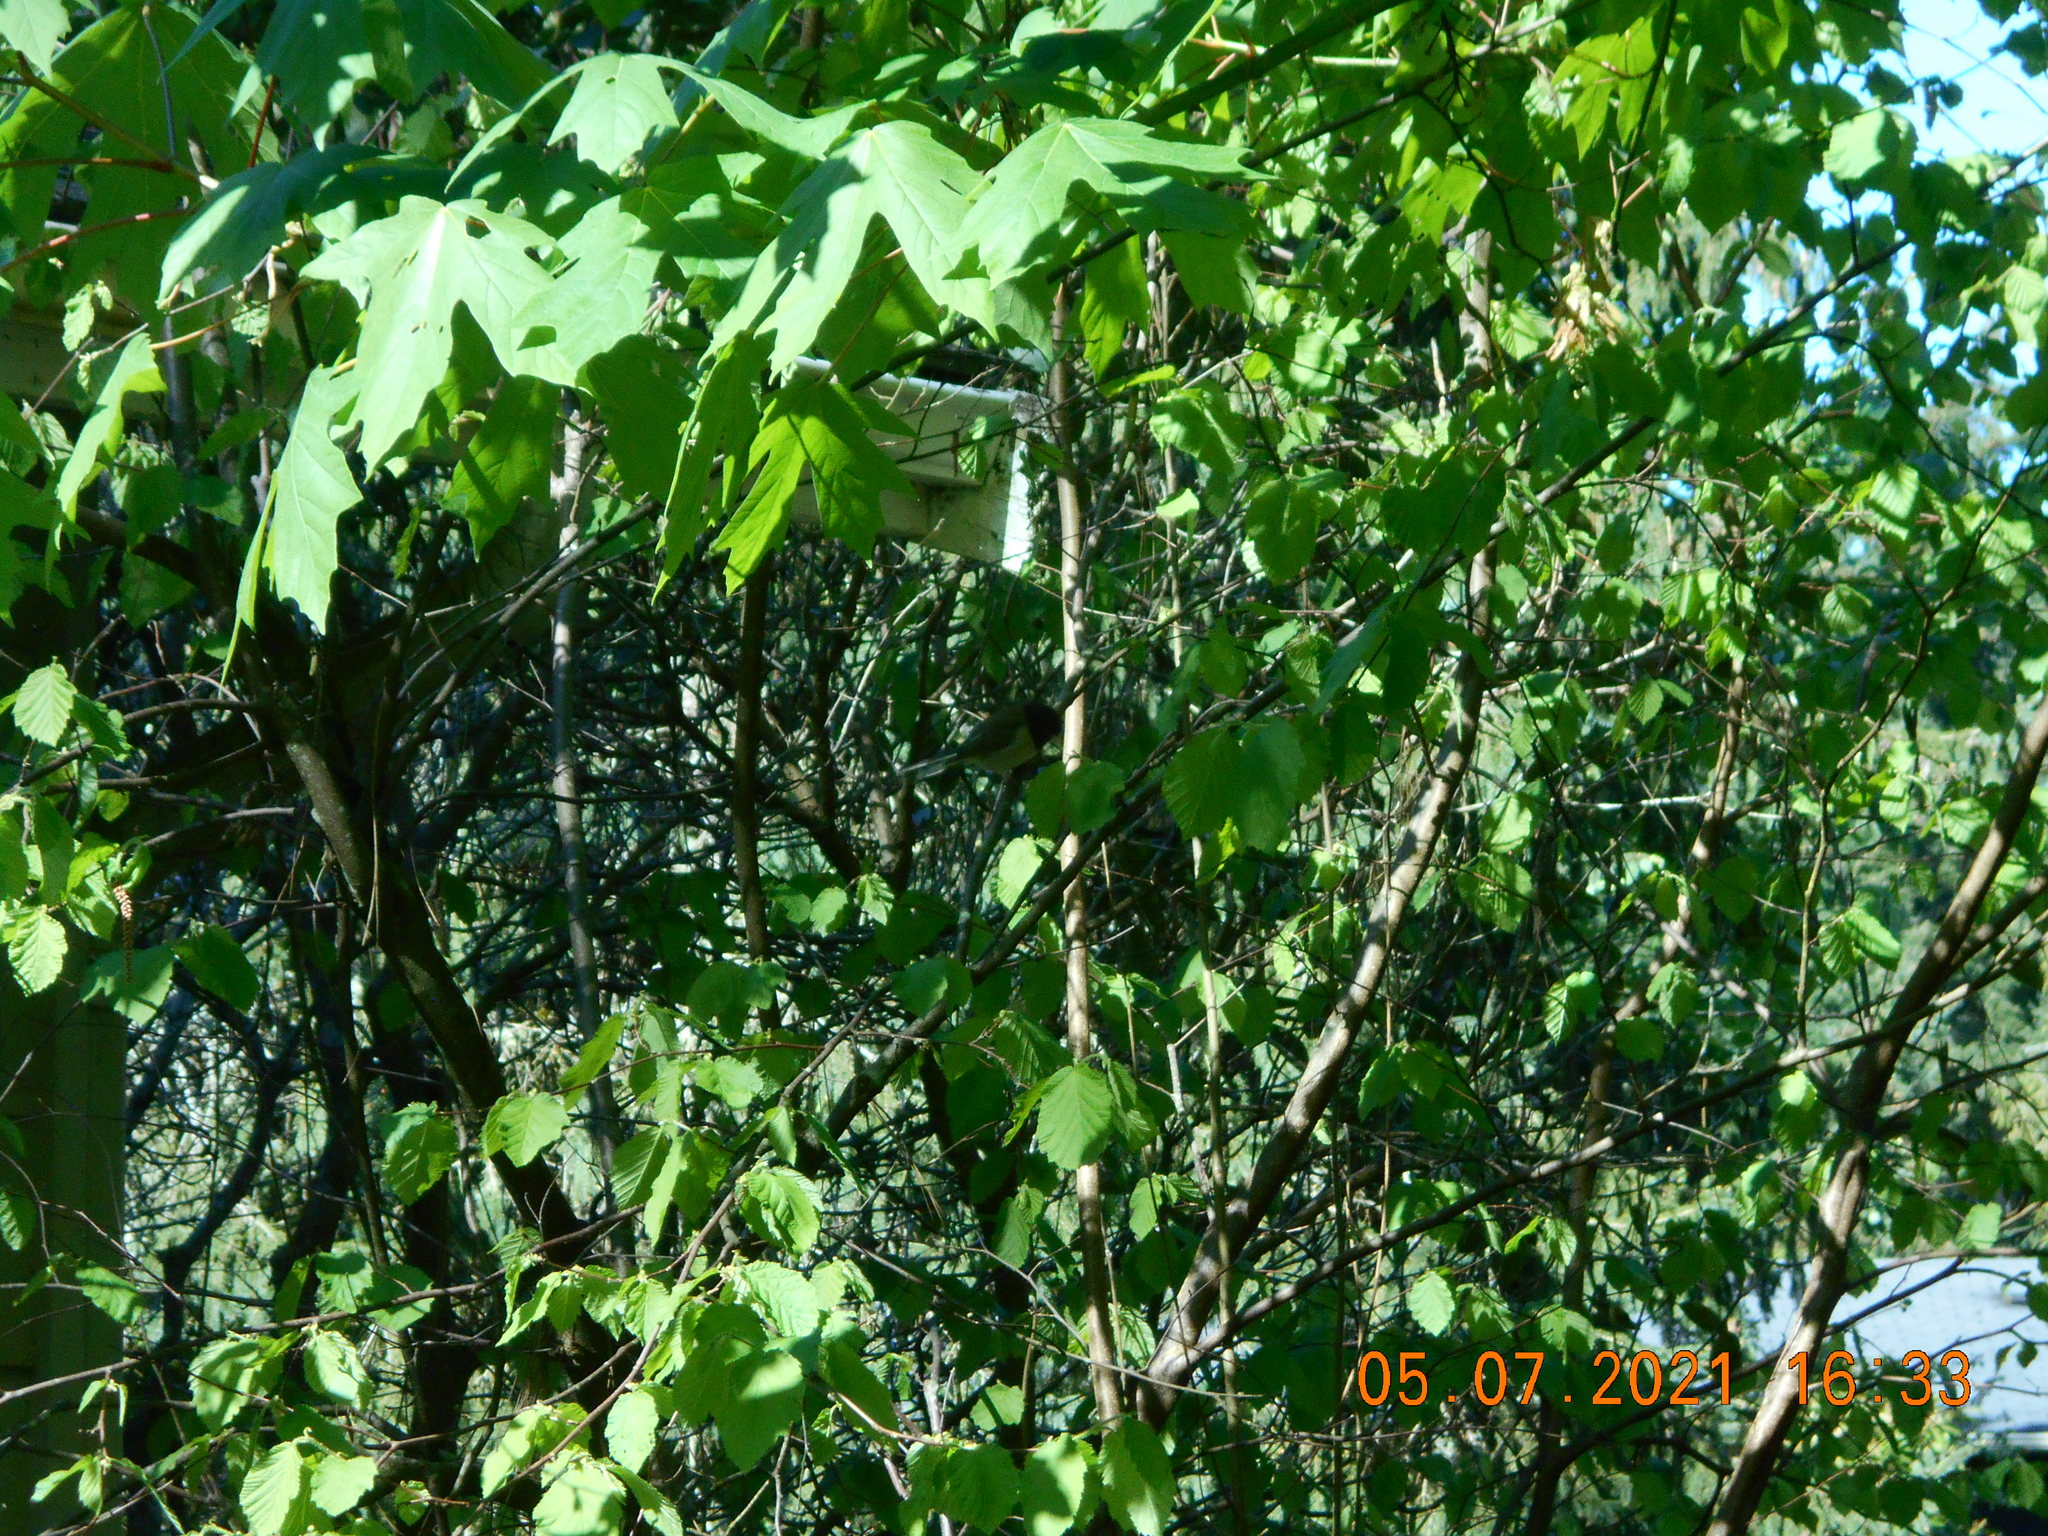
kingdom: Animalia
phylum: Chordata
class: Aves
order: Passeriformes
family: Passerellidae
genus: Junco
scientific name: Junco hyemalis
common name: Dark-eyed junco
